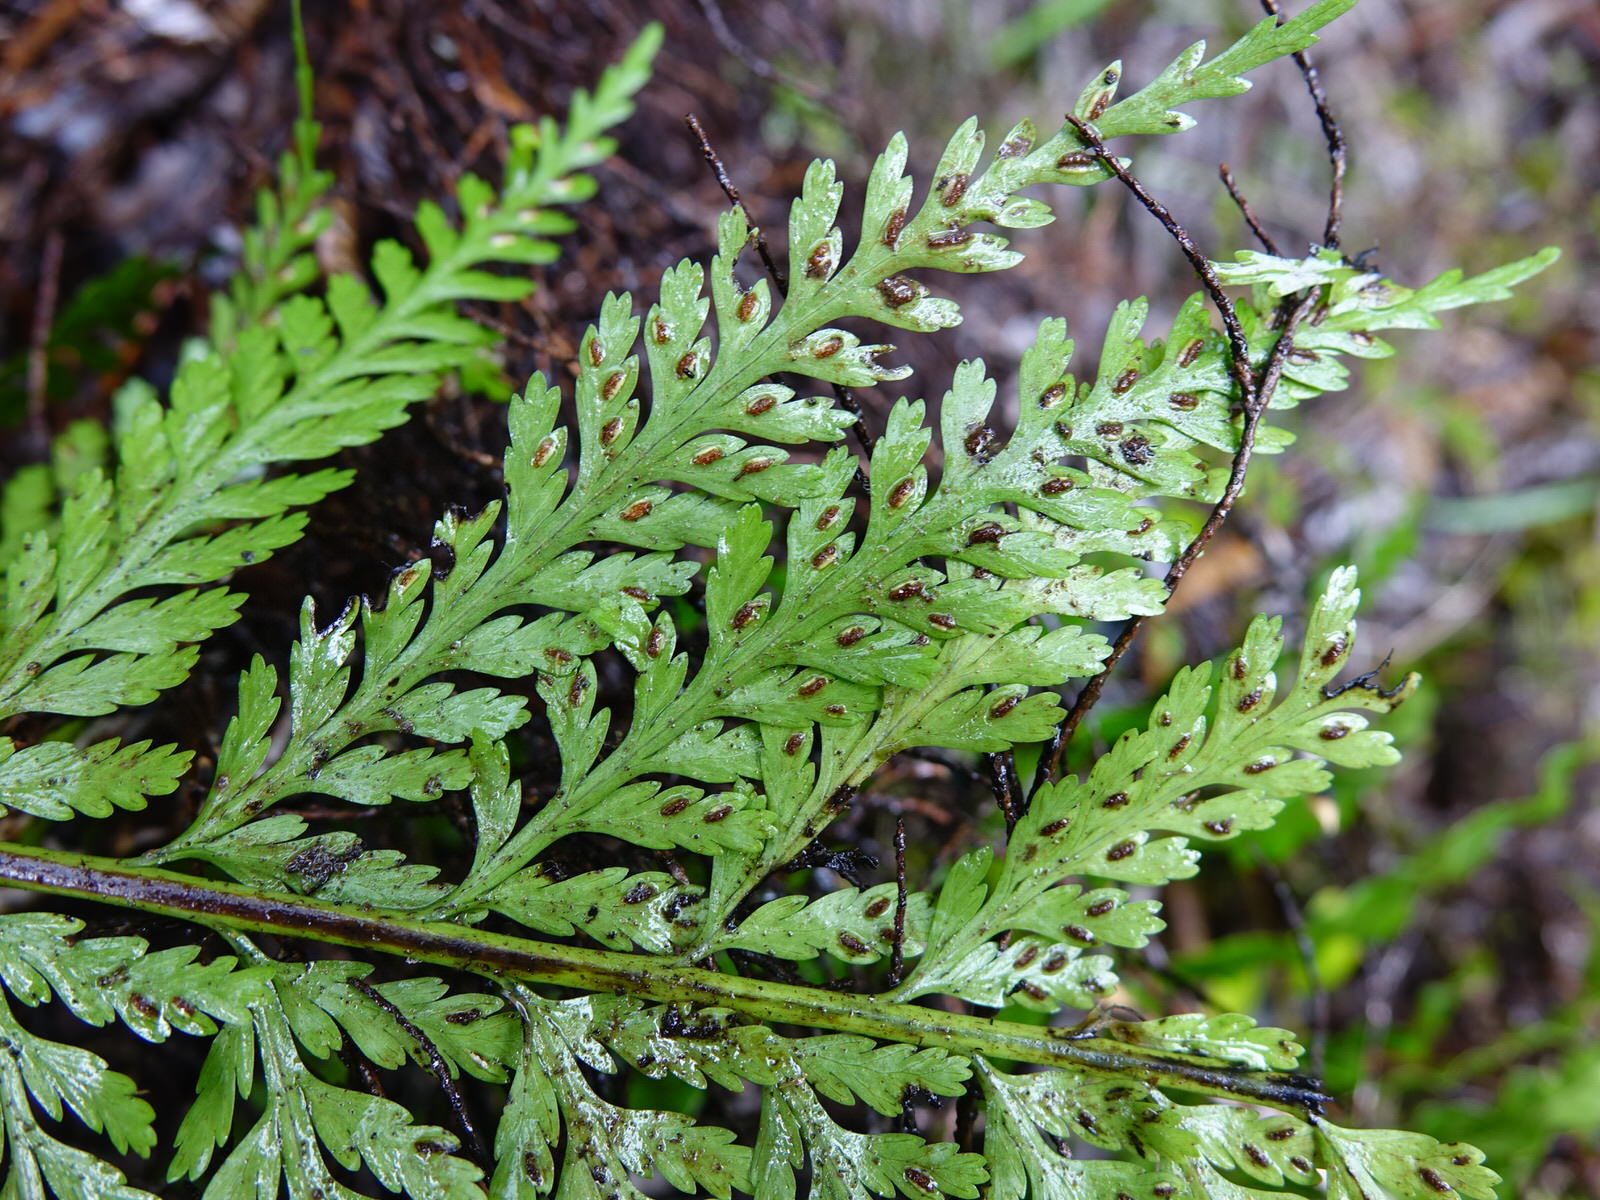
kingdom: Plantae
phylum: Tracheophyta
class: Polypodiopsida
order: Polypodiales
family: Aspleniaceae
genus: Asplenium
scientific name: Asplenium bulbiferum
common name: Mother fern
